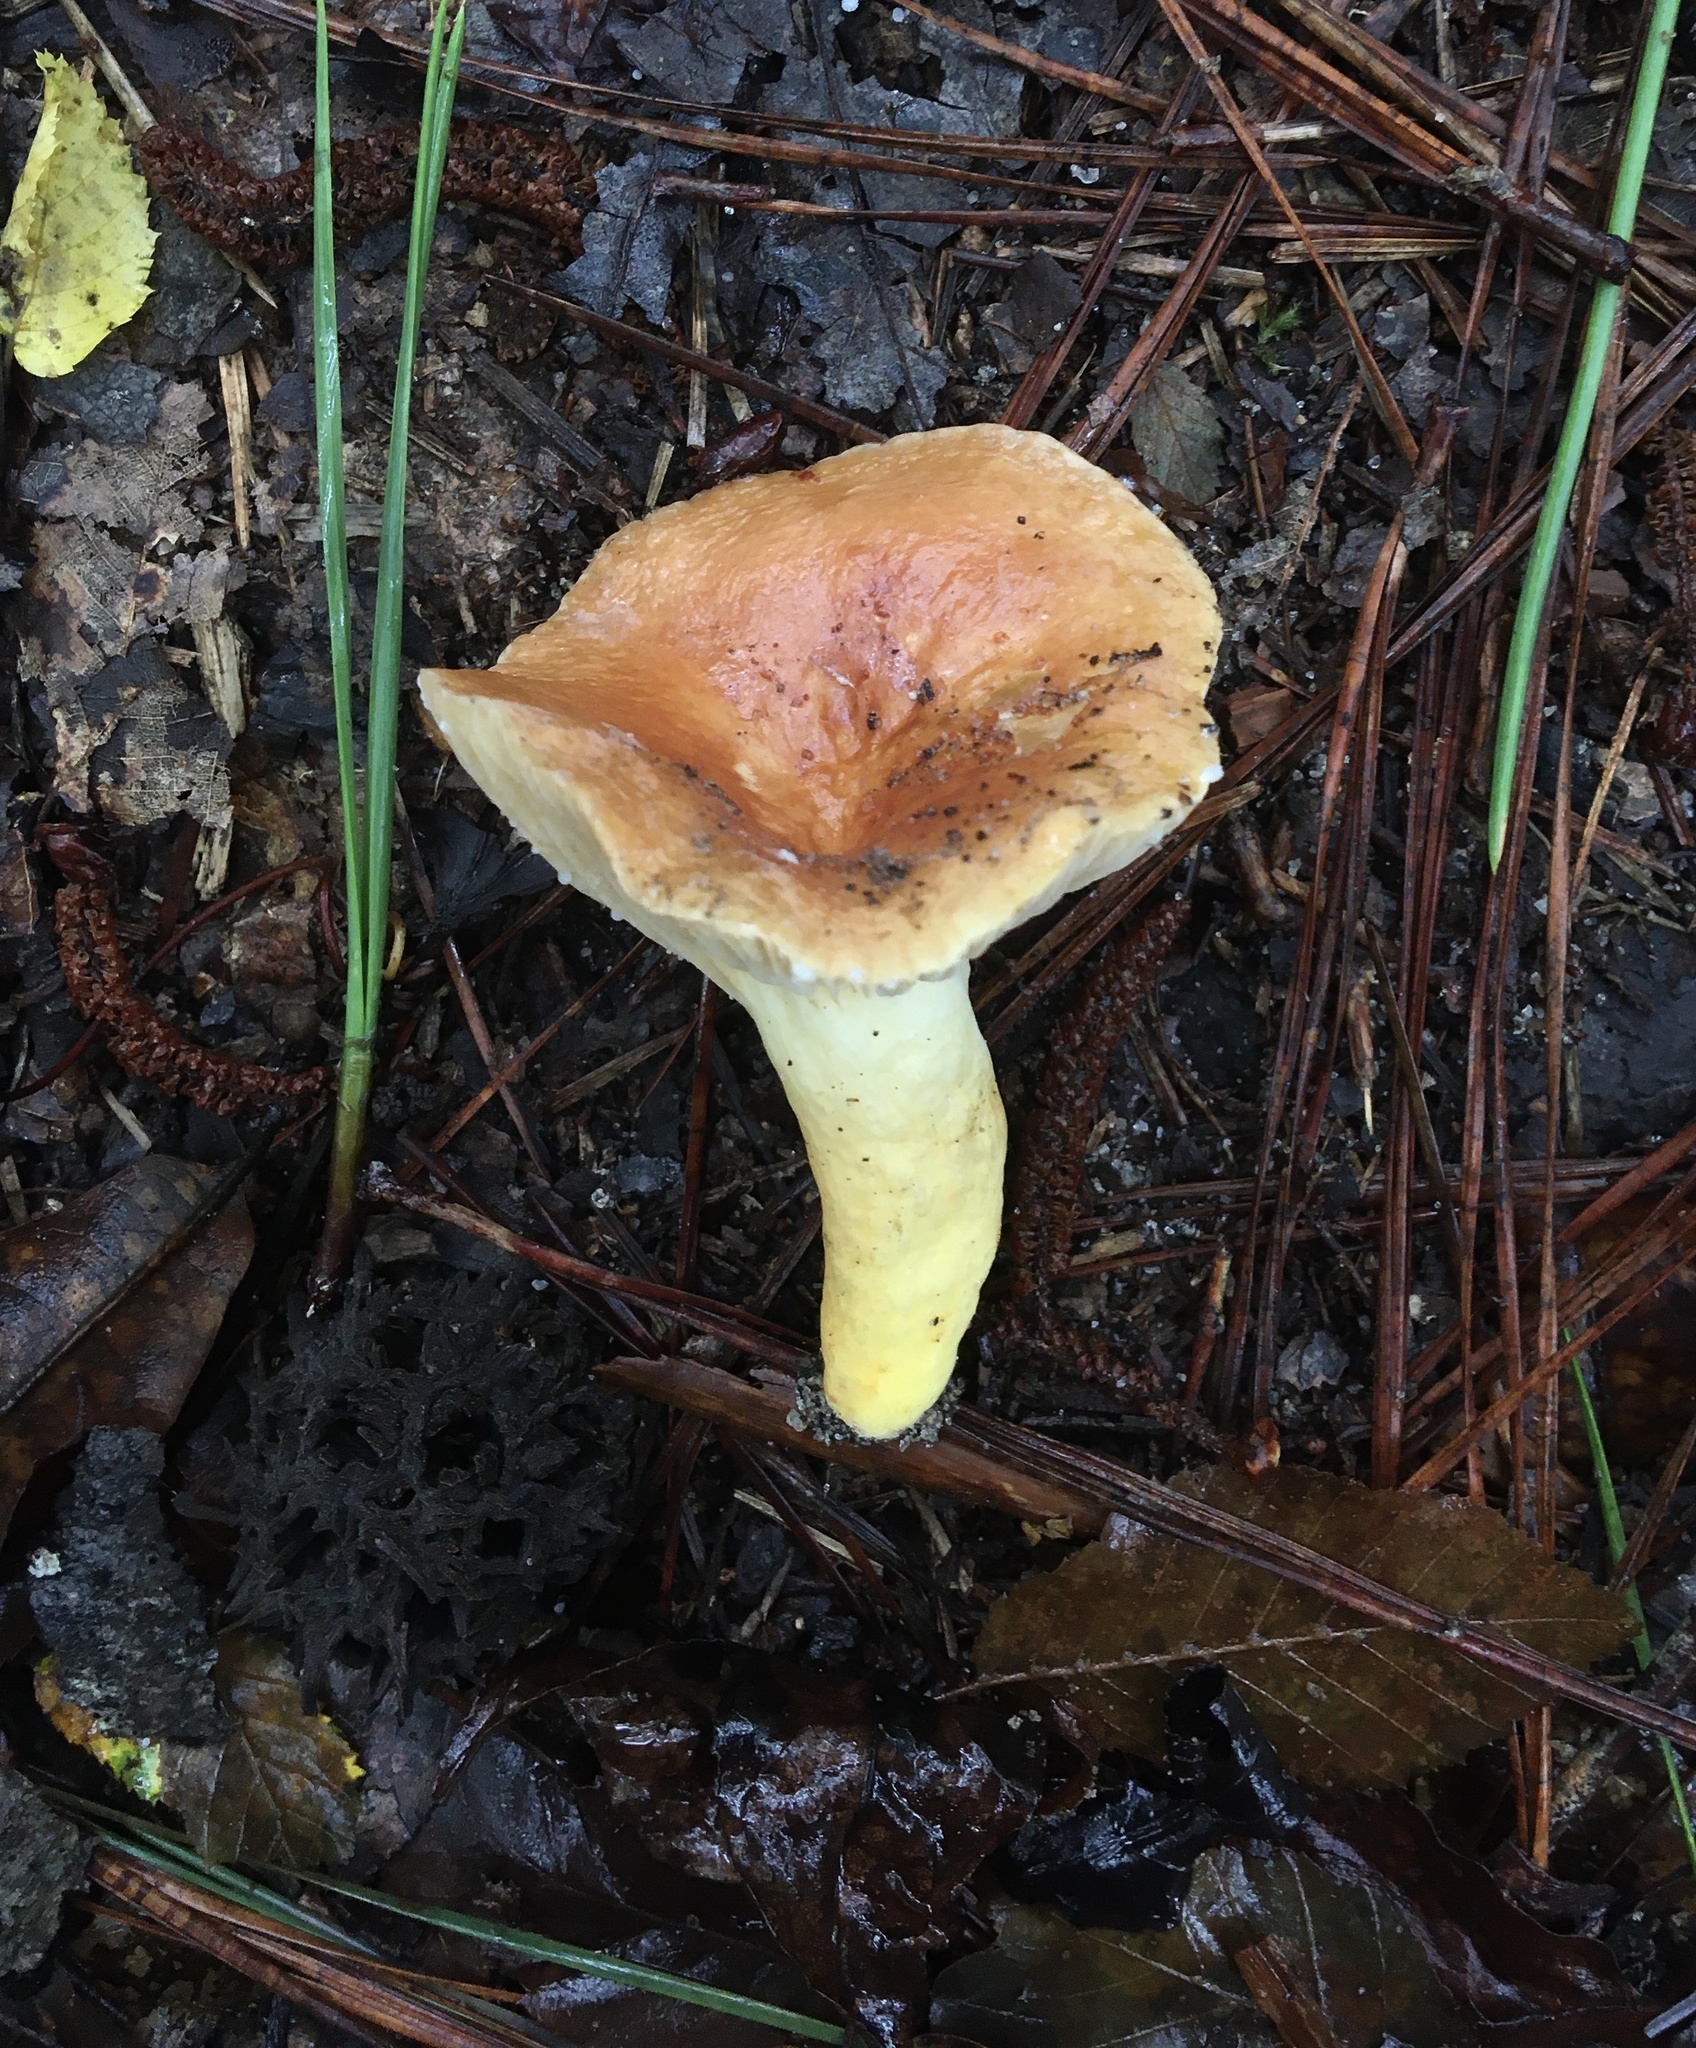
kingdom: Fungi
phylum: Basidiomycota
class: Agaricomycetes
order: Russulales
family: Russulaceae
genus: Lactarius
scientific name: Lactarius hygrophoroides
